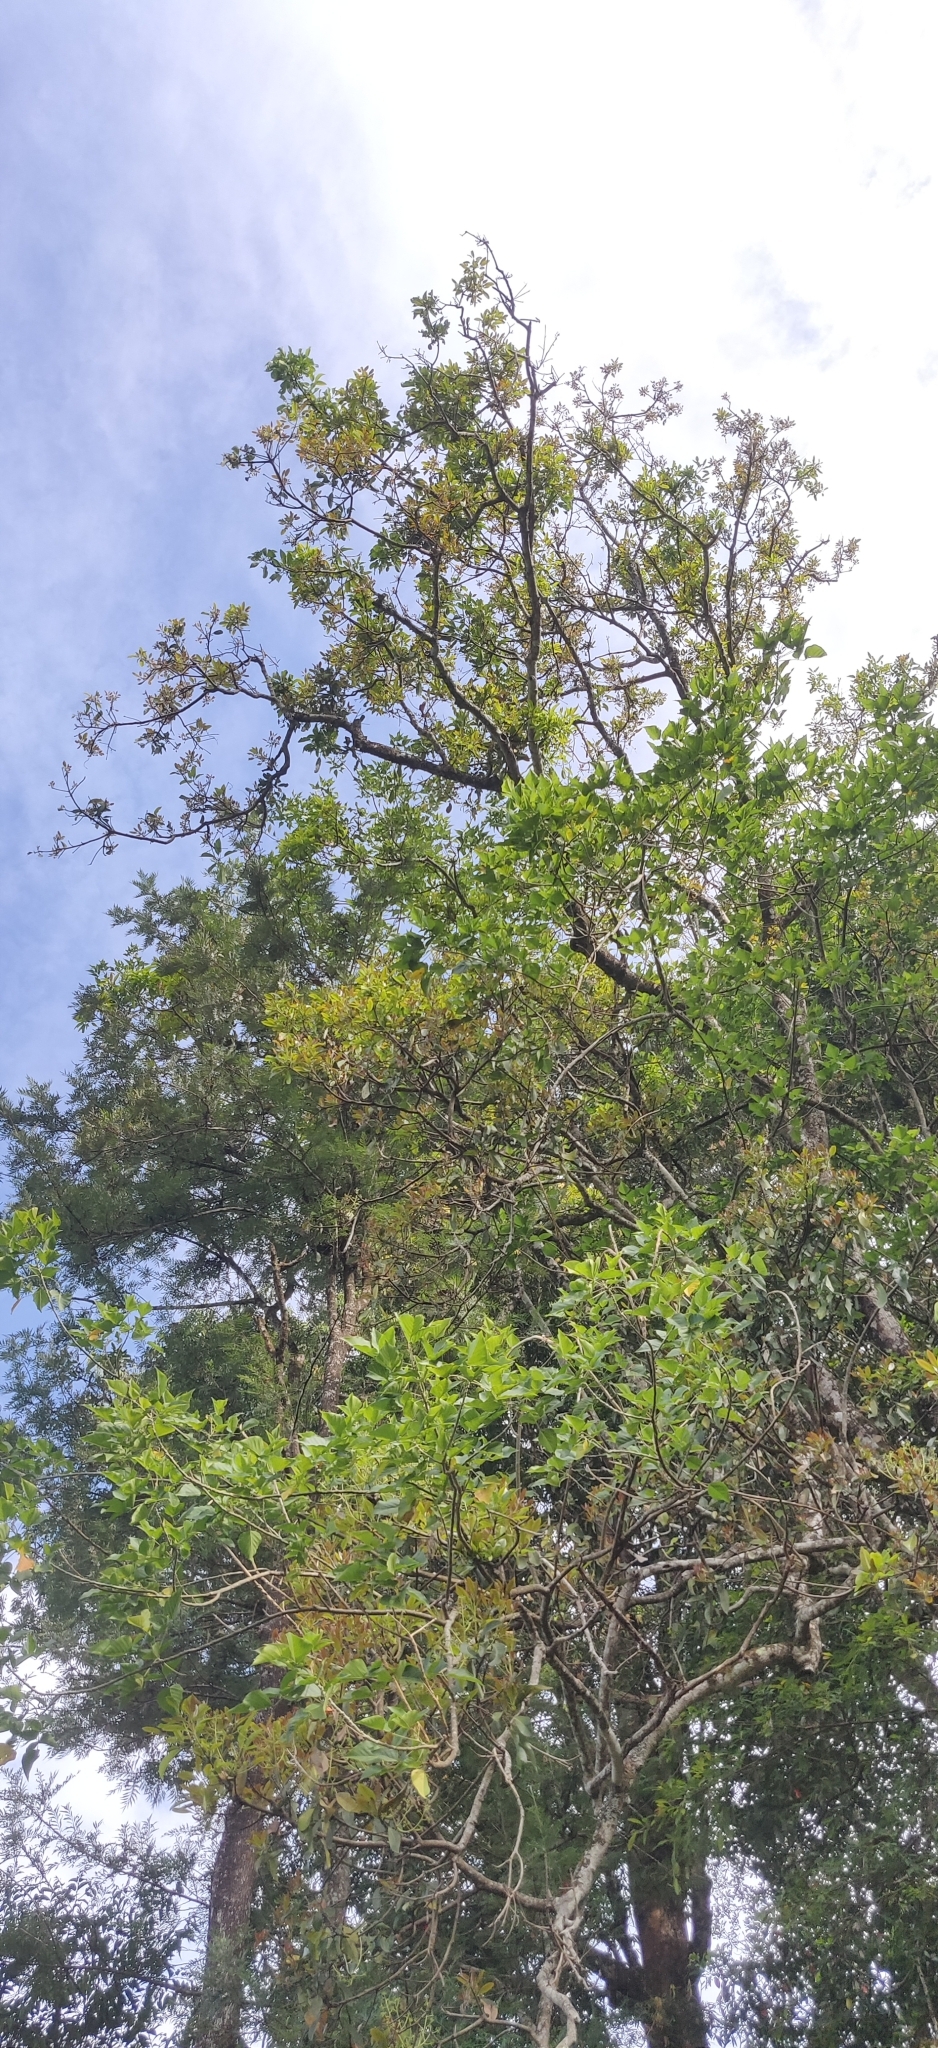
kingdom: Plantae
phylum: Tracheophyta
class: Magnoliopsida
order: Laurales
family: Lauraceae
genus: Machilus
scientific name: Machilus glaucescens
